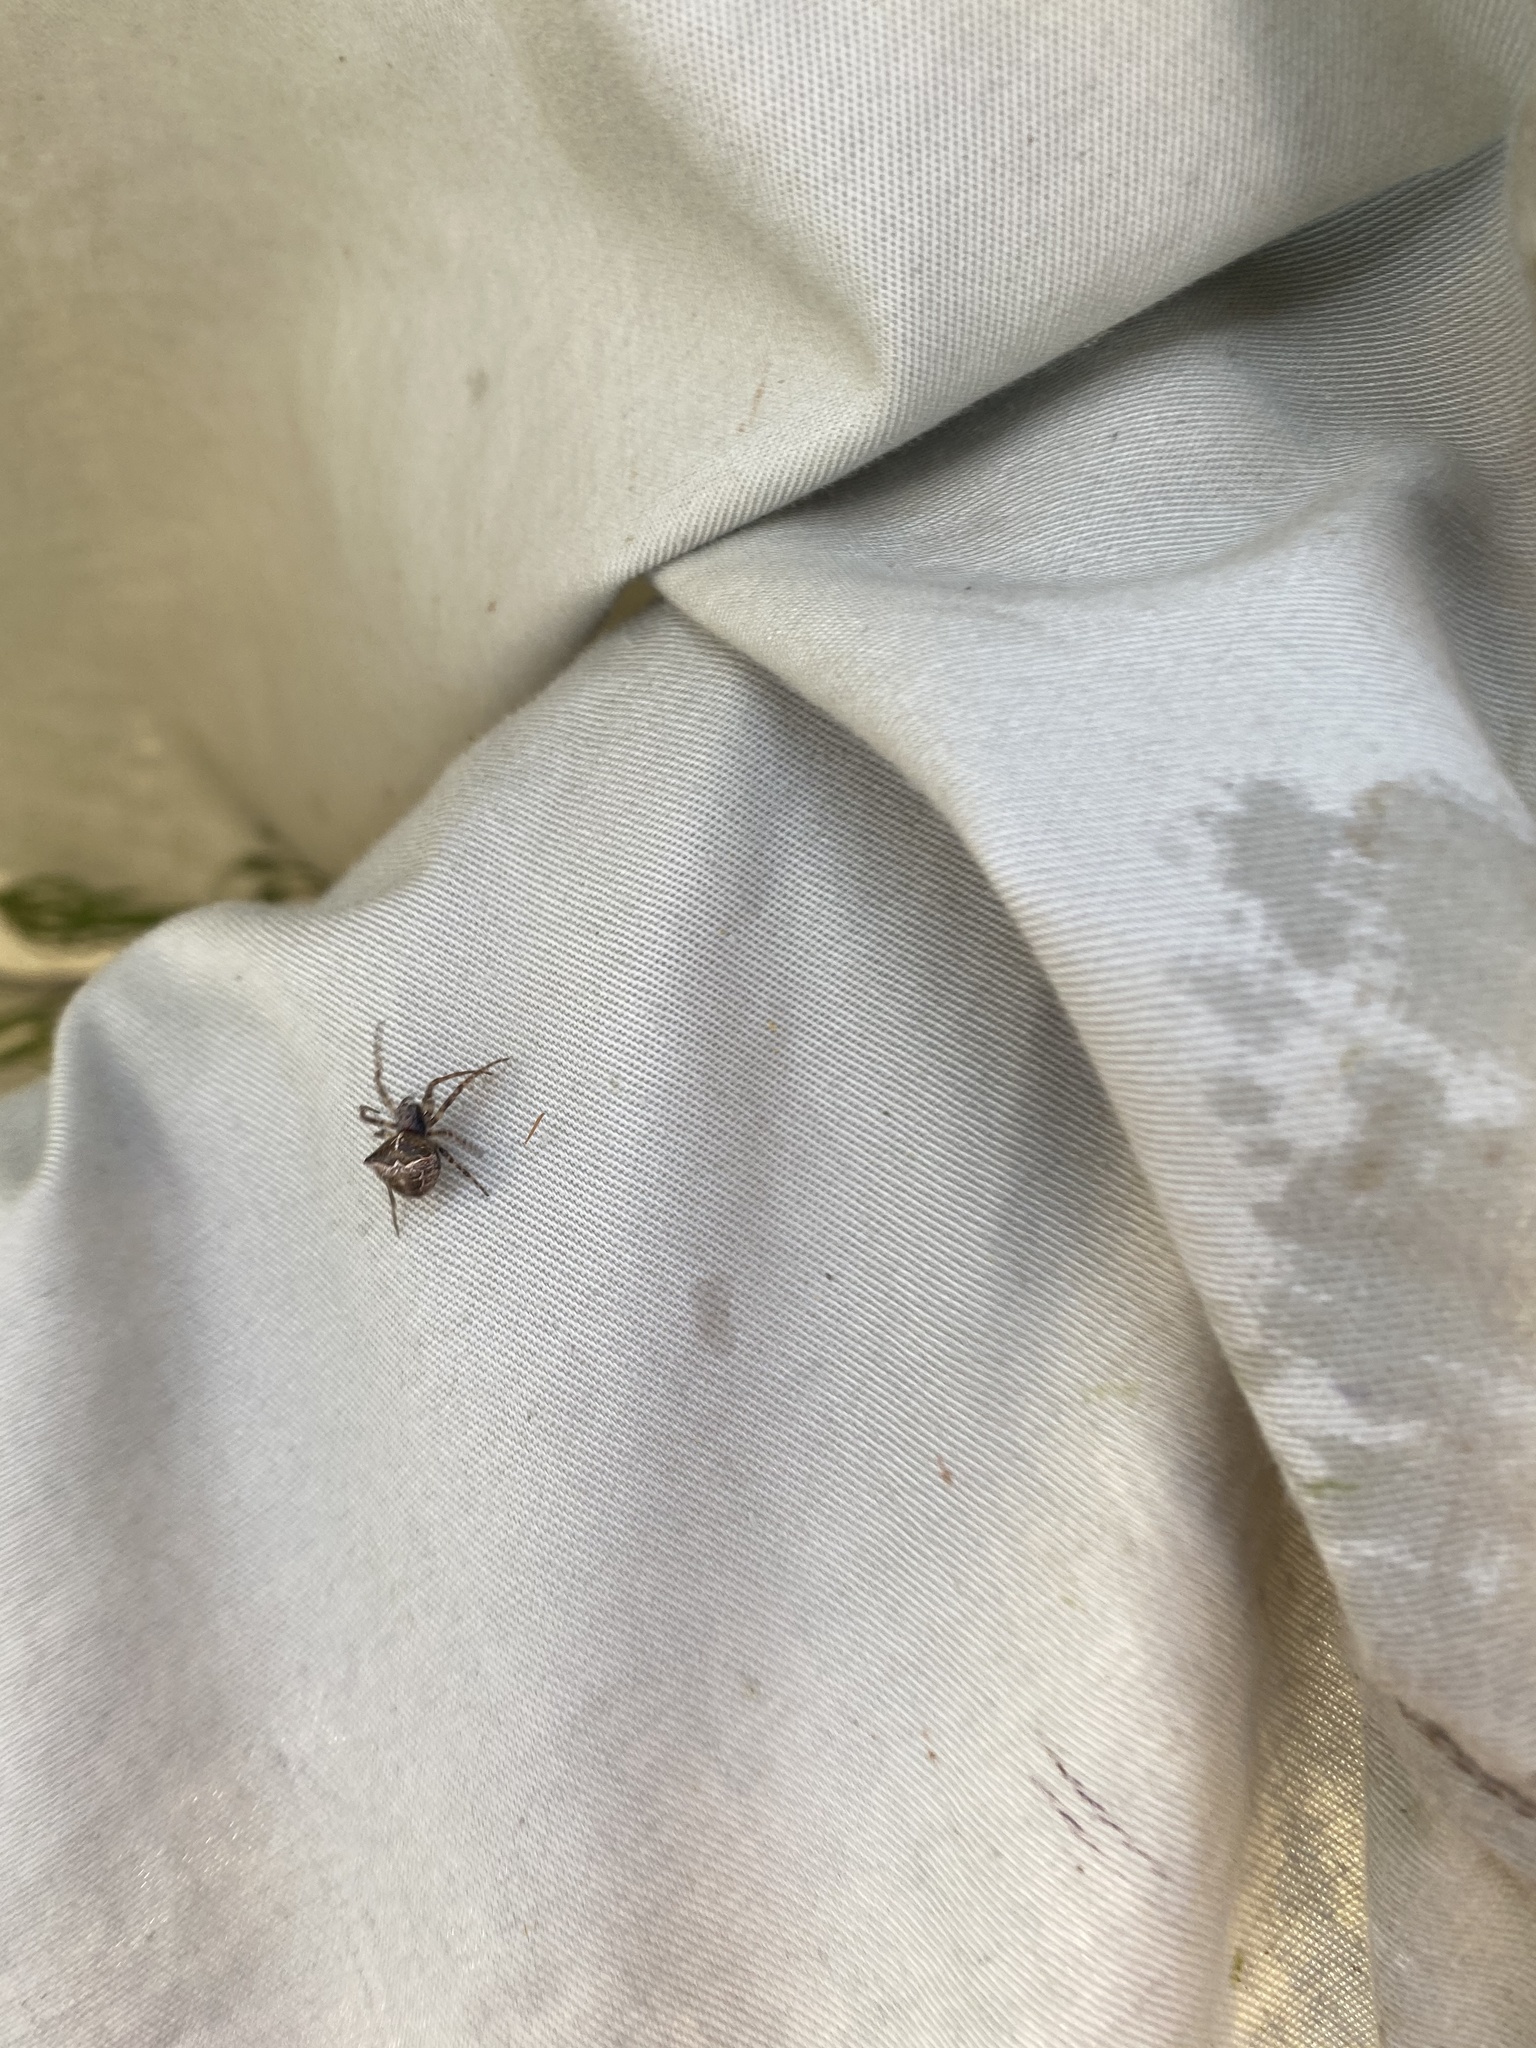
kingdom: Animalia
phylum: Arthropoda
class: Arachnida
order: Araneae
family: Araneidae
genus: Gibbaranea
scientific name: Gibbaranea bituberculata
